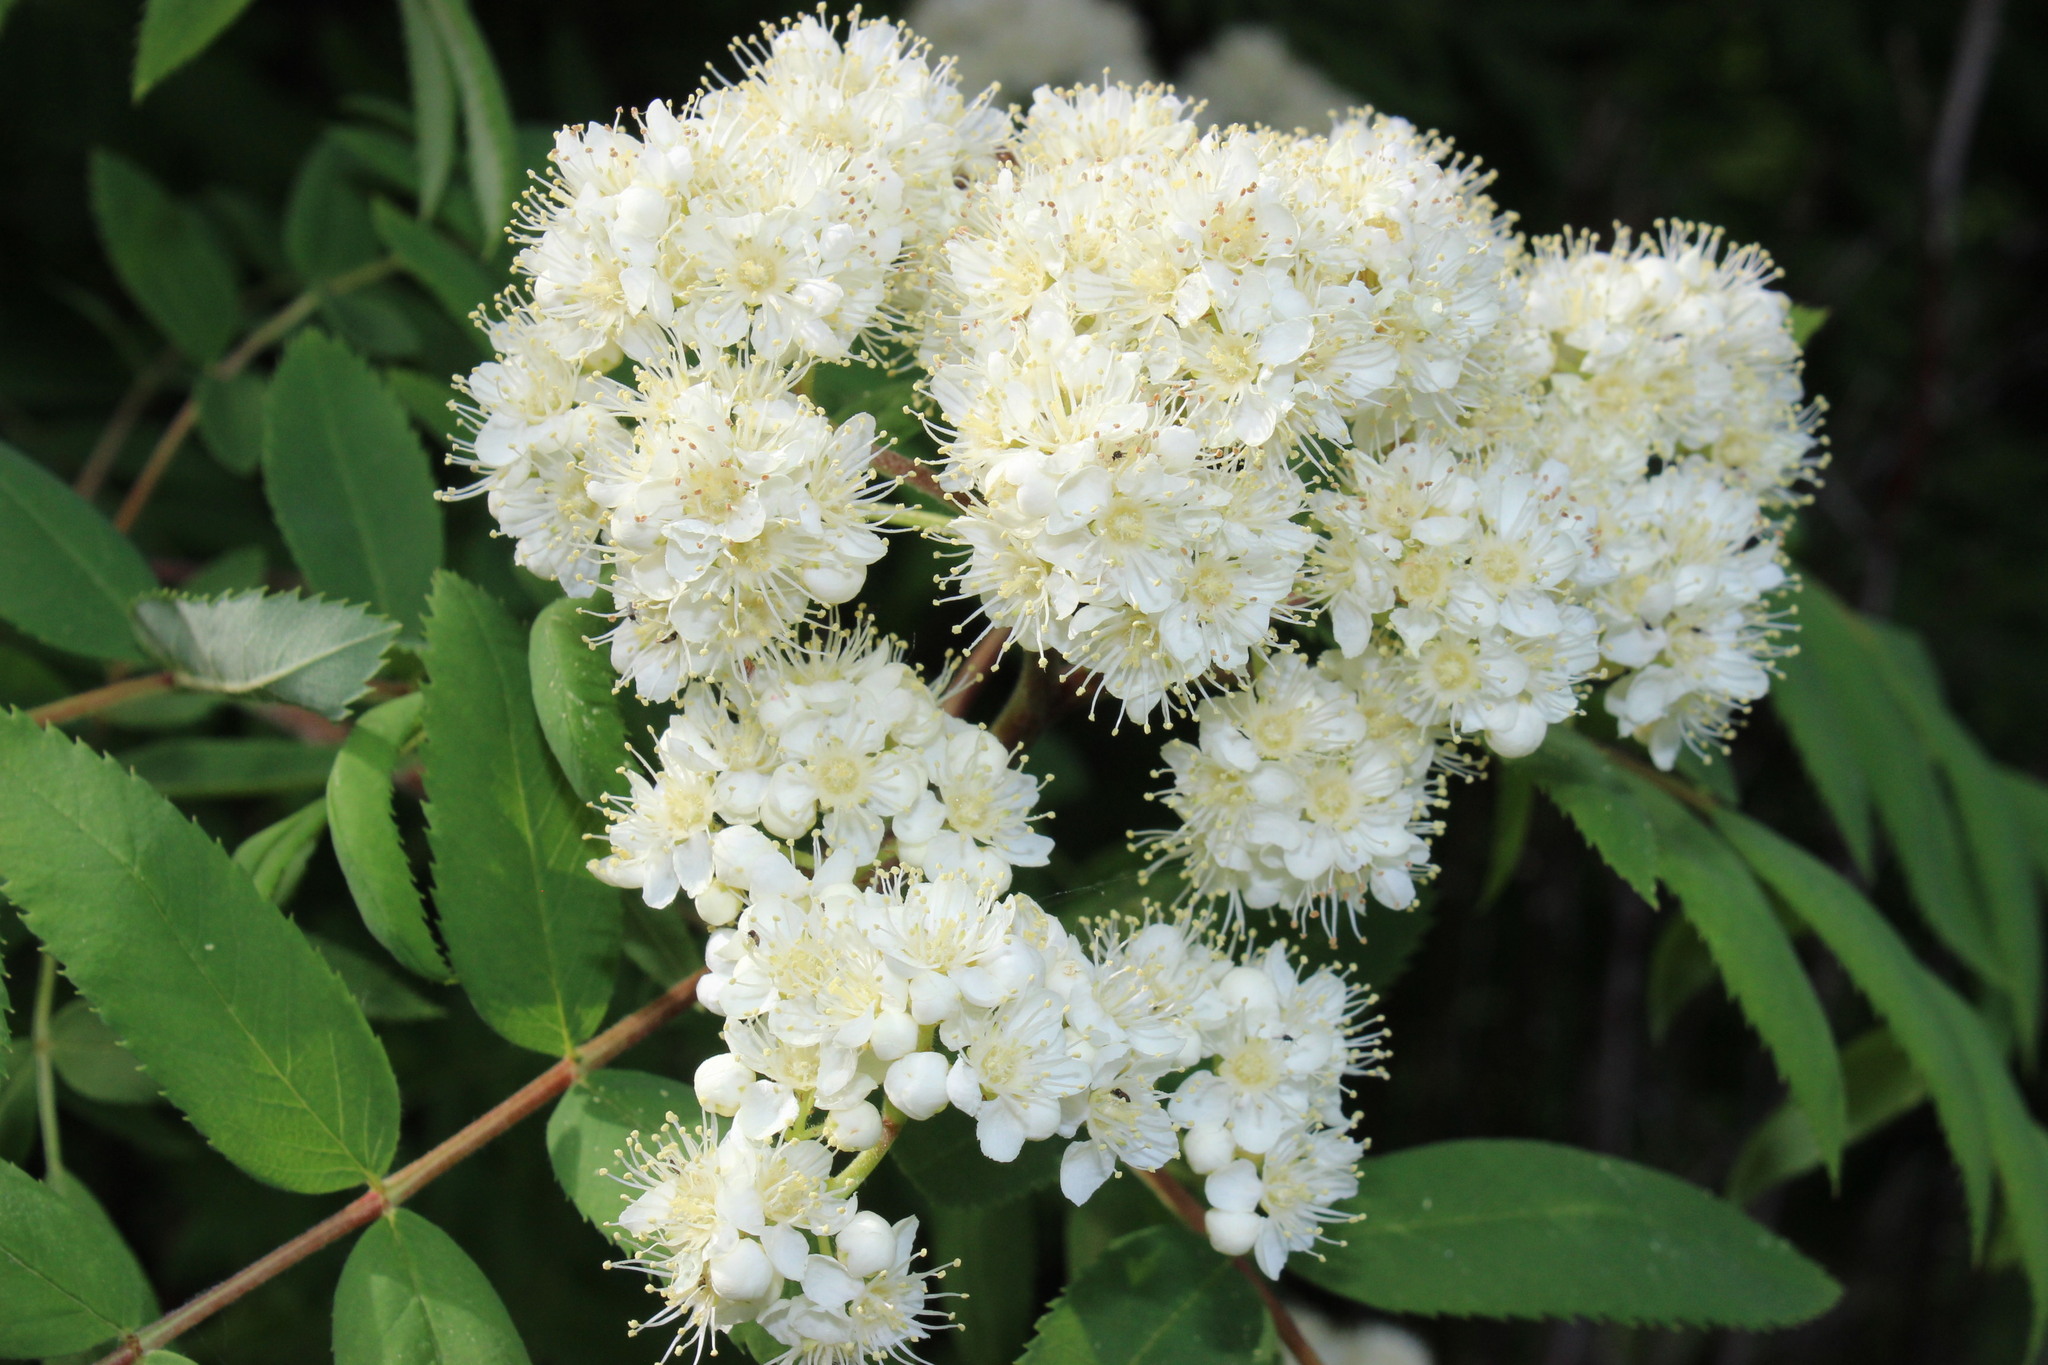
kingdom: Plantae
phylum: Tracheophyta
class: Magnoliopsida
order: Rosales
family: Rosaceae
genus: Sorbus
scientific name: Sorbus aucuparia
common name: Rowan
